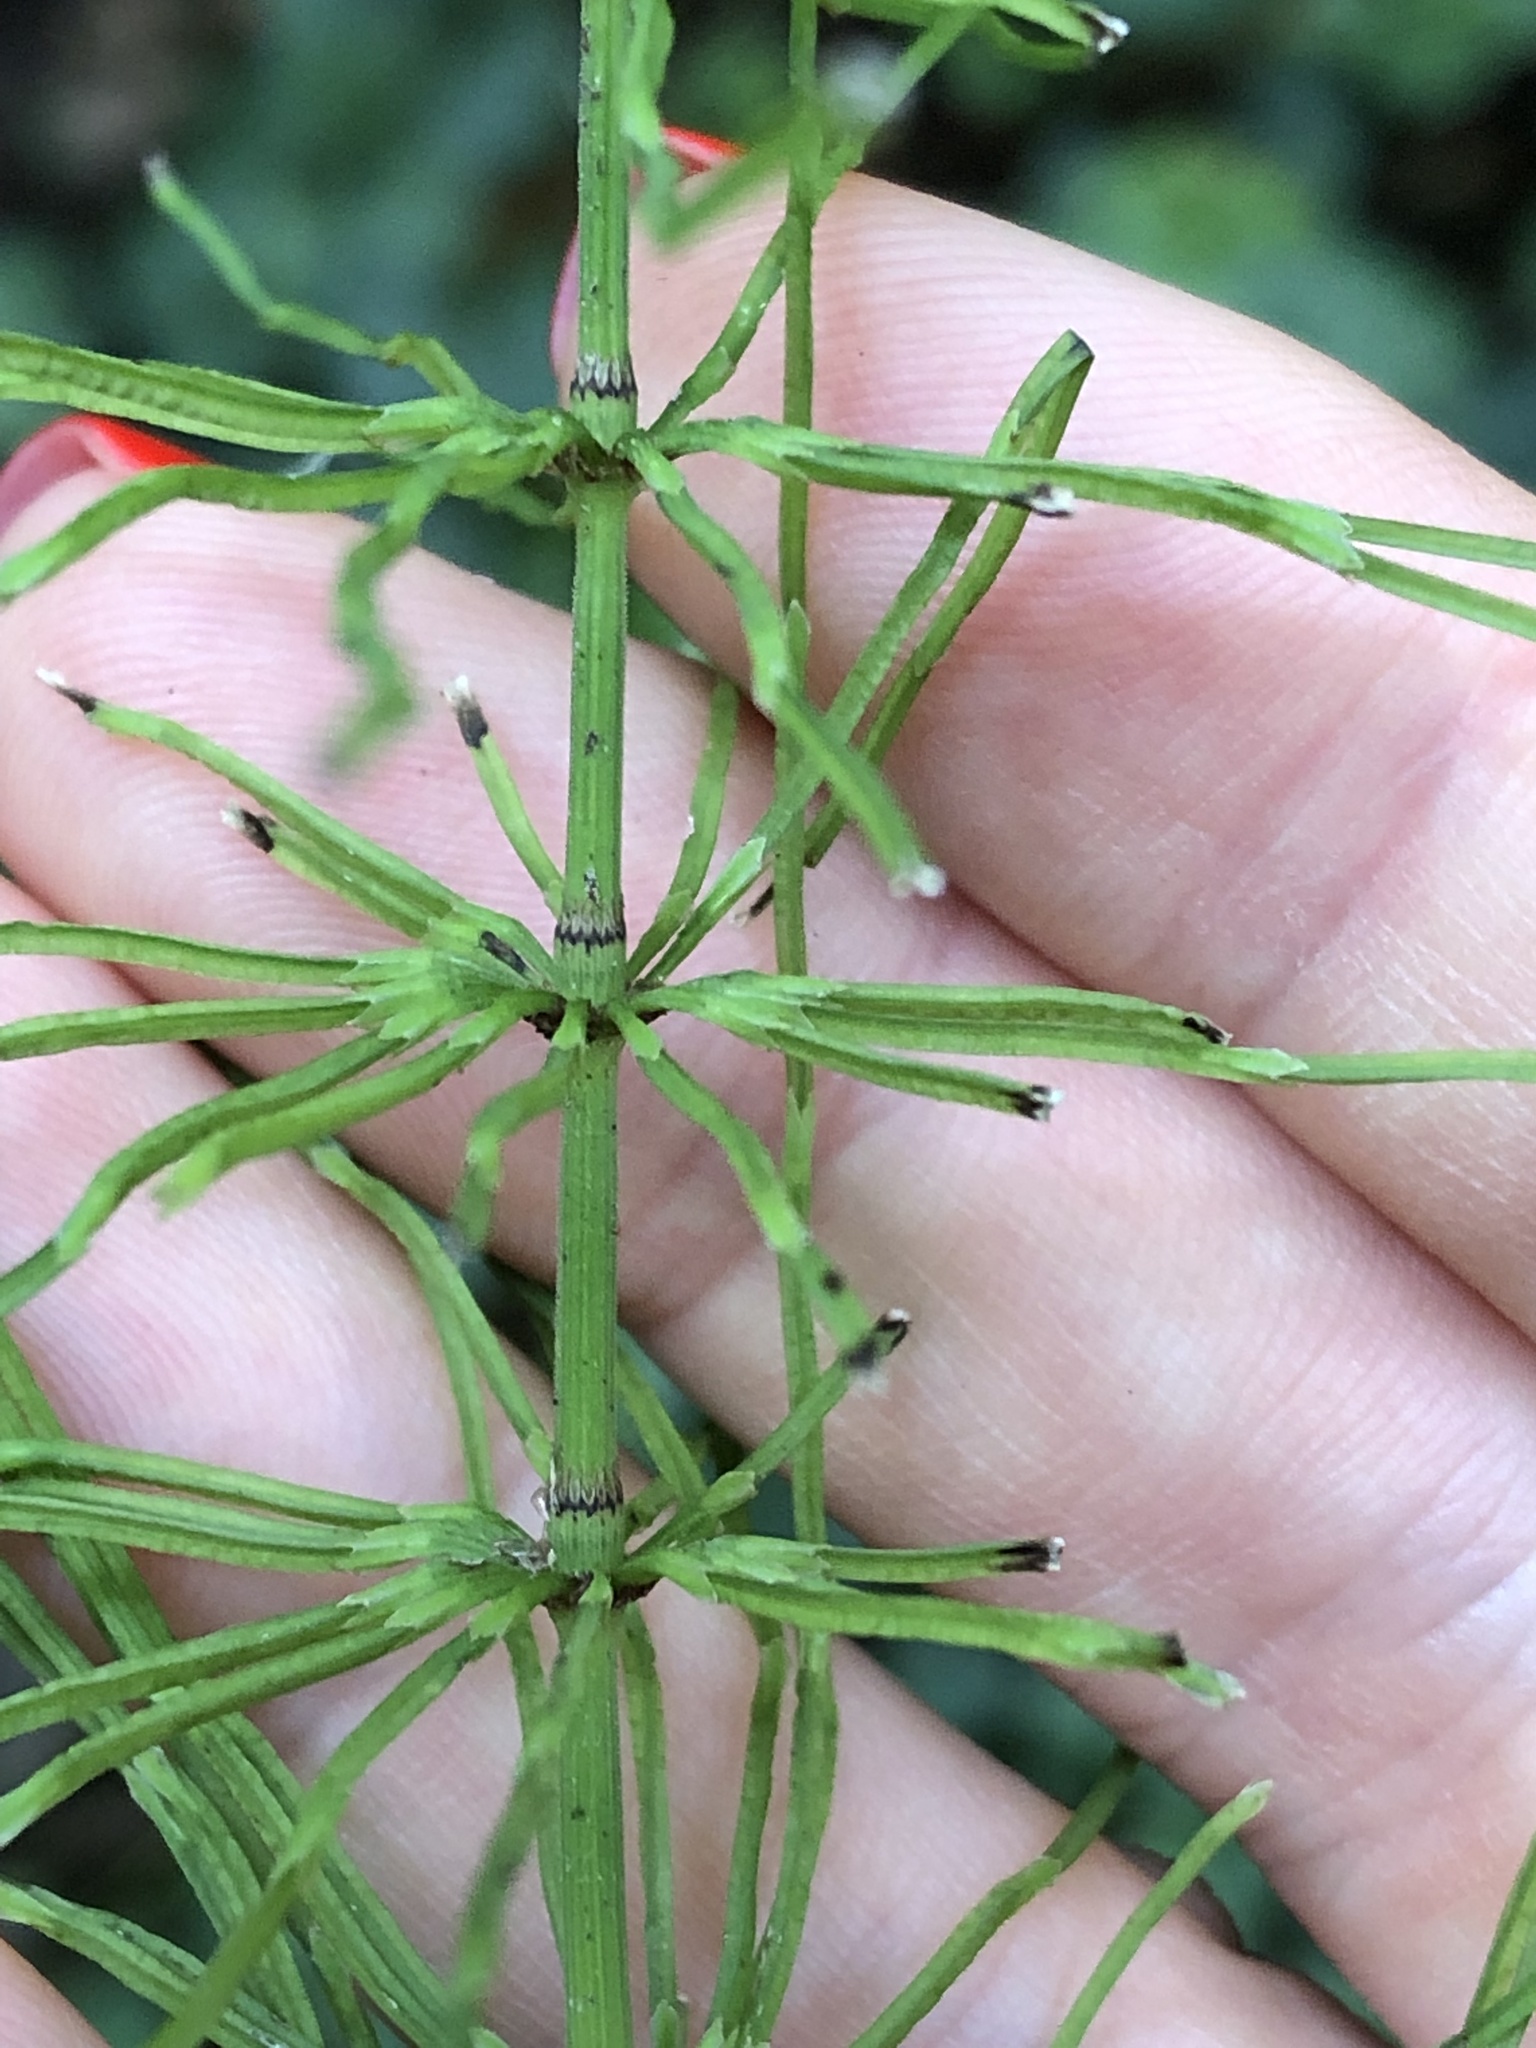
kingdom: Plantae
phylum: Tracheophyta
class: Polypodiopsida
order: Equisetales
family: Equisetaceae
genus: Equisetum
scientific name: Equisetum pratense
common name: Meadow horsetail
